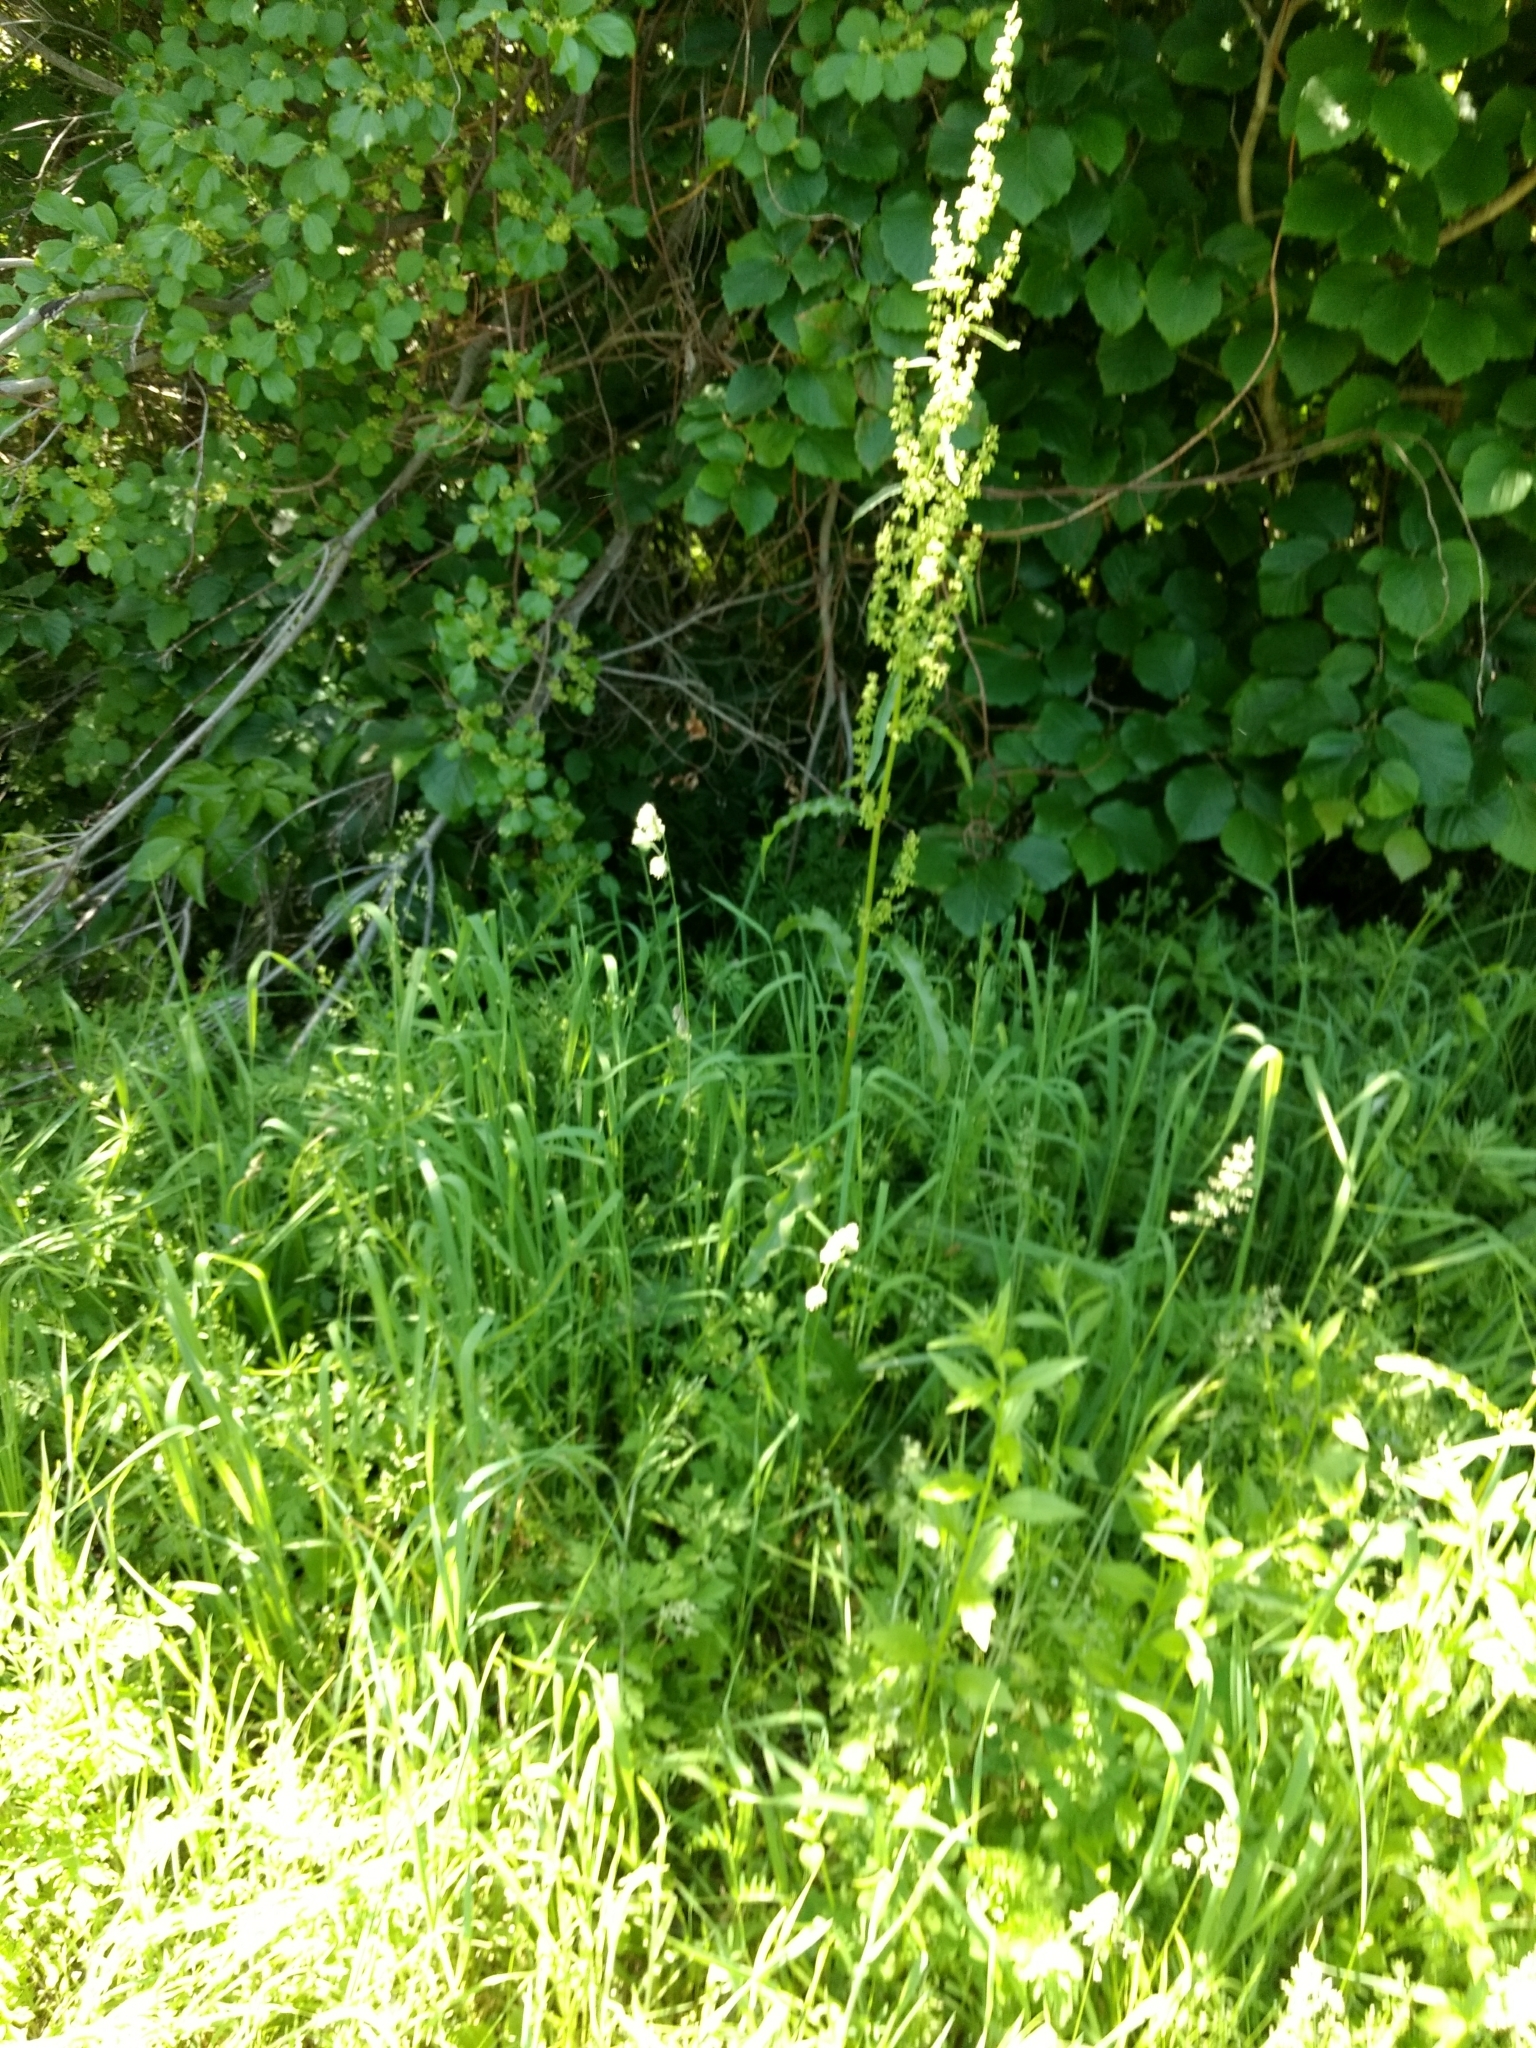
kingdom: Plantae
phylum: Tracheophyta
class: Magnoliopsida
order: Caryophyllales
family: Polygonaceae
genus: Rumex
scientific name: Rumex crispus
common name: Curled dock
